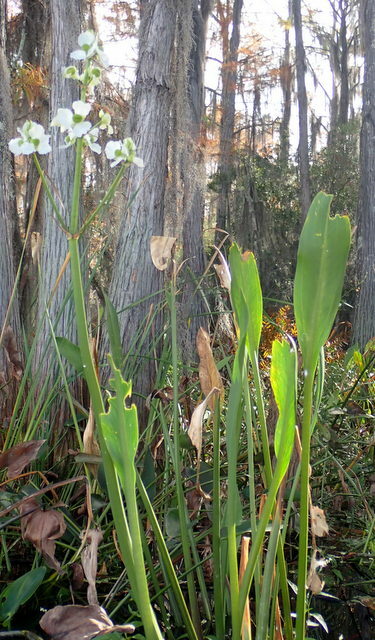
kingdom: Plantae
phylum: Tracheophyta
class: Liliopsida
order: Alismatales
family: Alismataceae
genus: Sagittaria
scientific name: Sagittaria lancifolia
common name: Lance-leaf arrowhead
